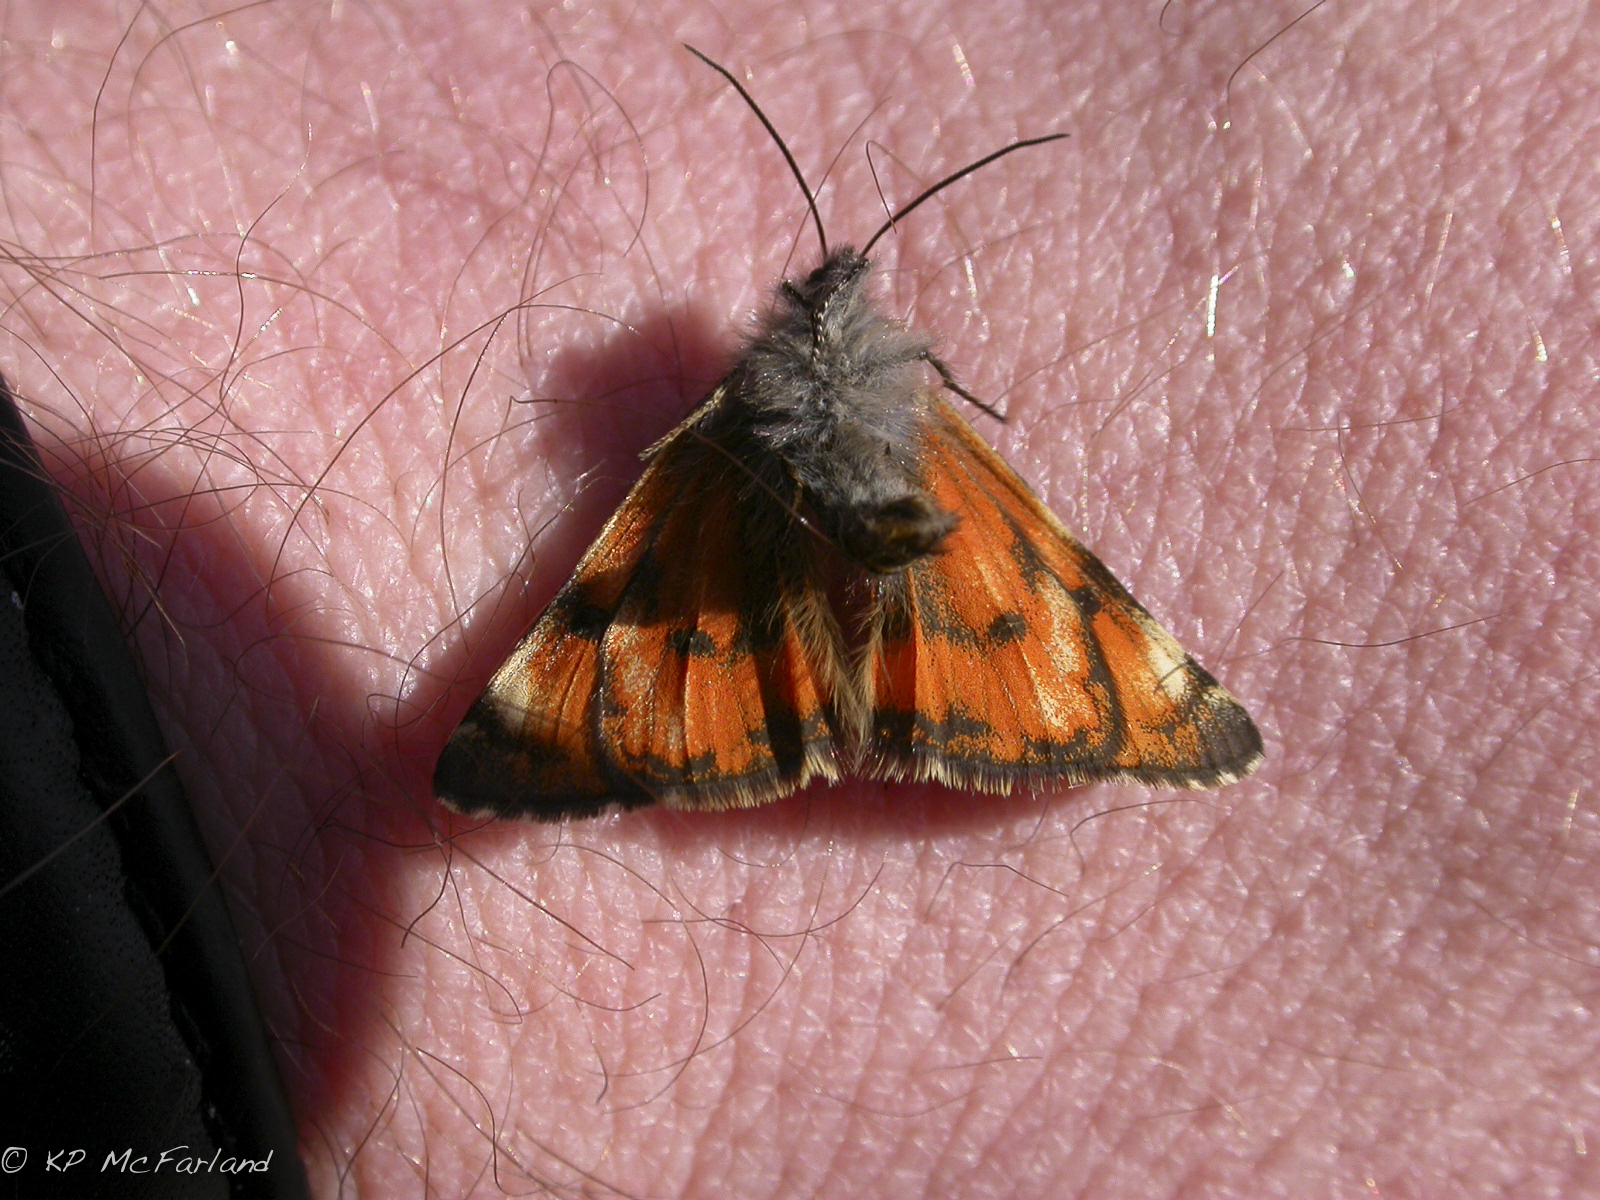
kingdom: Animalia
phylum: Arthropoda
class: Insecta
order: Lepidoptera
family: Geometridae
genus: Archiearis
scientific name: Archiearis infans
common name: First born geometer
